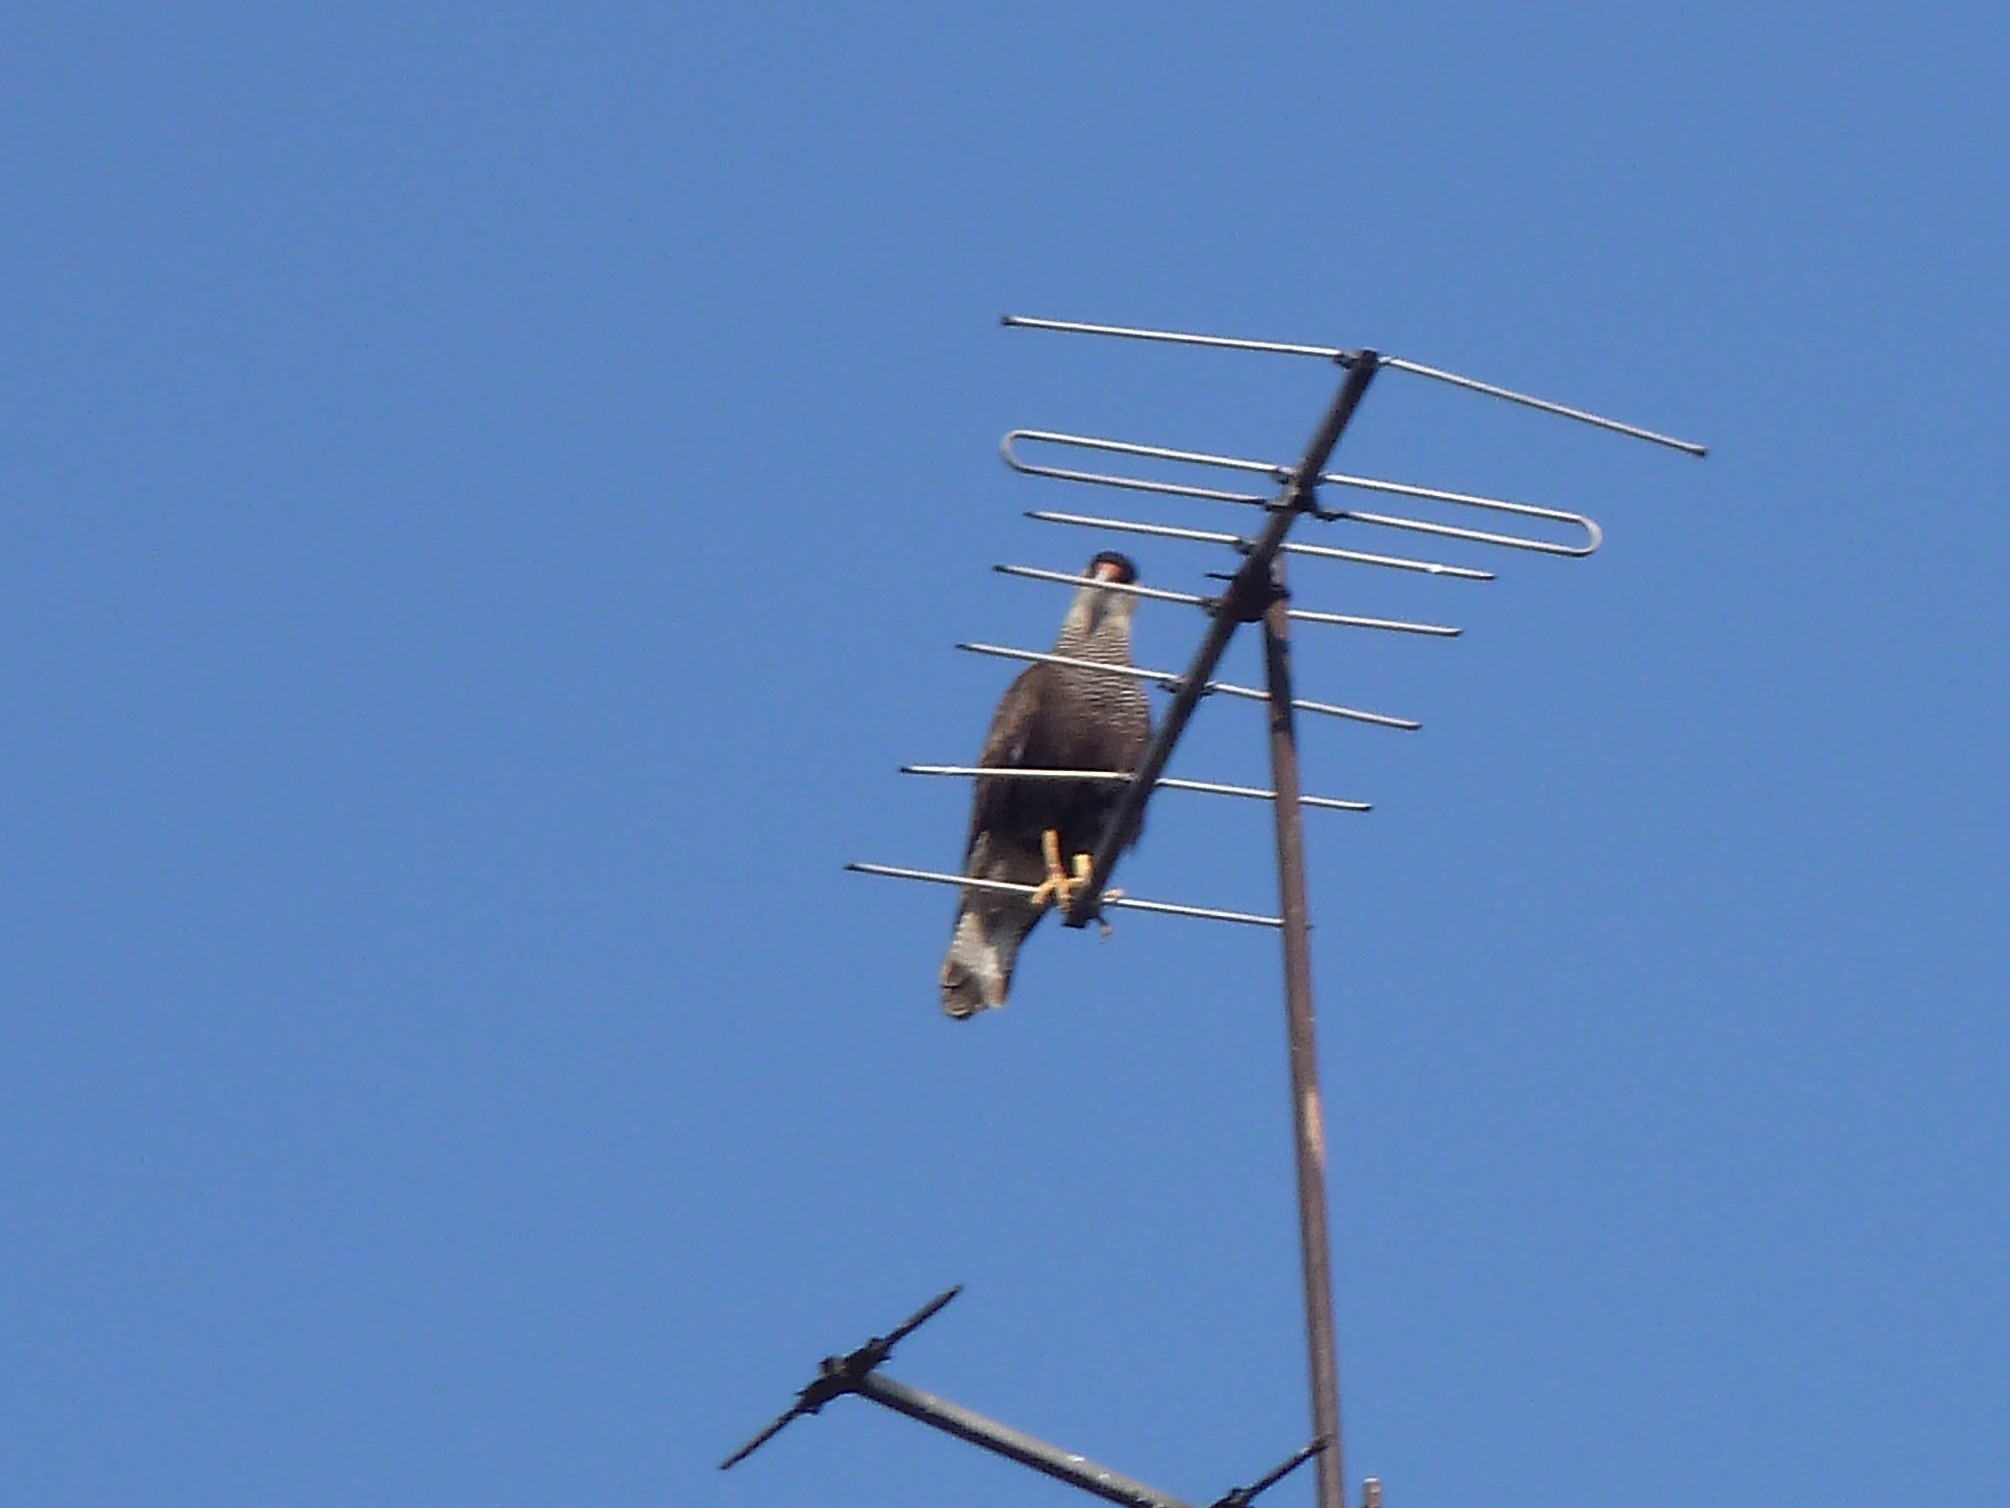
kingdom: Animalia
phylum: Chordata
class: Aves
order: Falconiformes
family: Falconidae
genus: Caracara
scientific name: Caracara plancus
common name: Southern caracara
